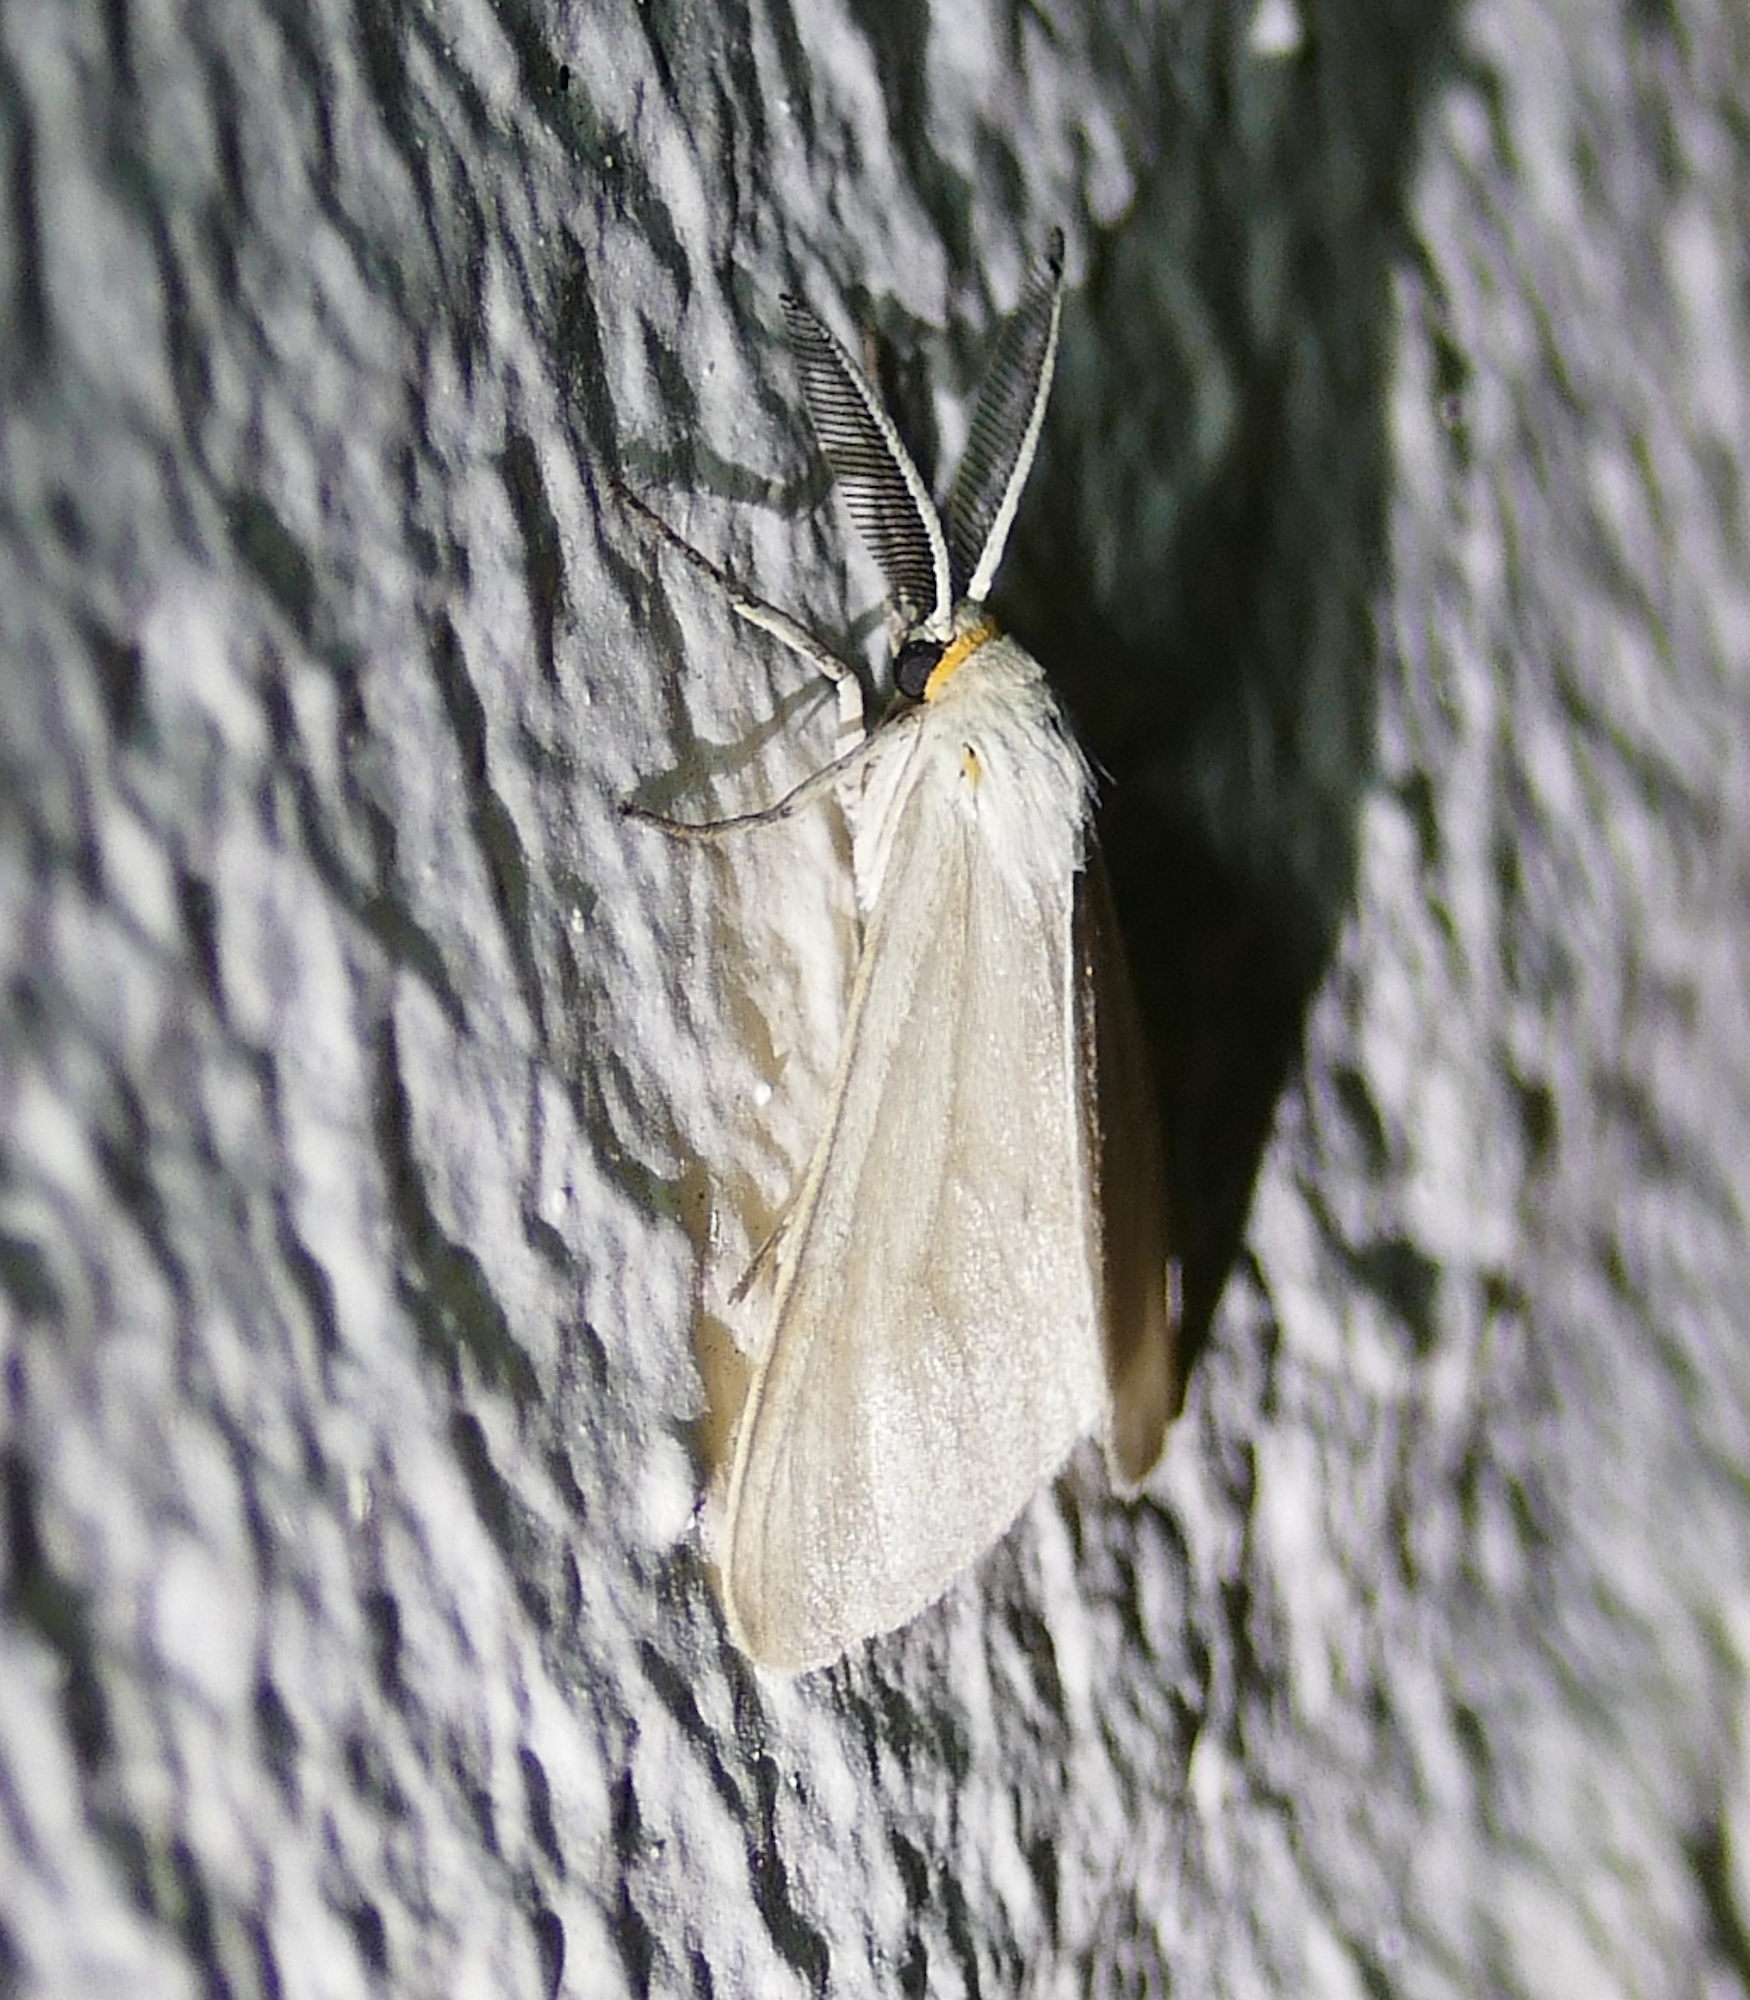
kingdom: Animalia
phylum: Arthropoda
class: Insecta
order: Lepidoptera
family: Erebidae
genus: Neoplynes
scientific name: Neoplynes eudora
